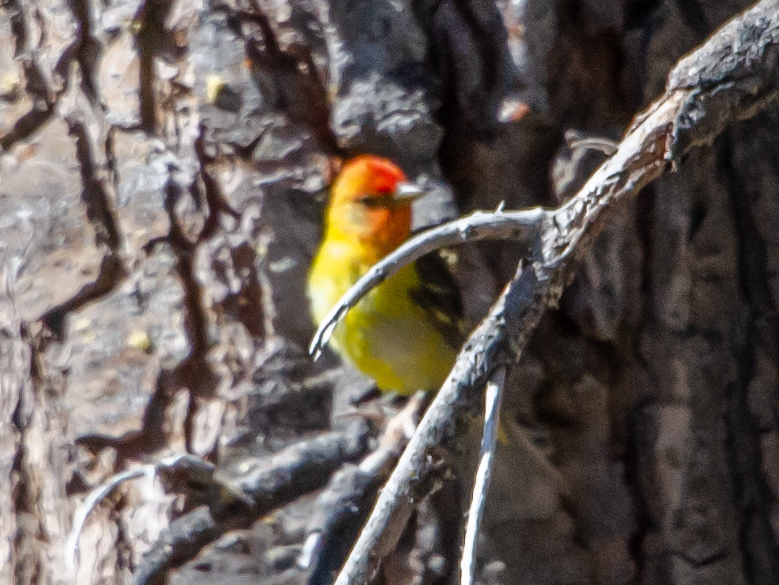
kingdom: Animalia
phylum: Chordata
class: Aves
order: Passeriformes
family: Cardinalidae
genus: Piranga
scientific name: Piranga ludoviciana
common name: Western tanager
